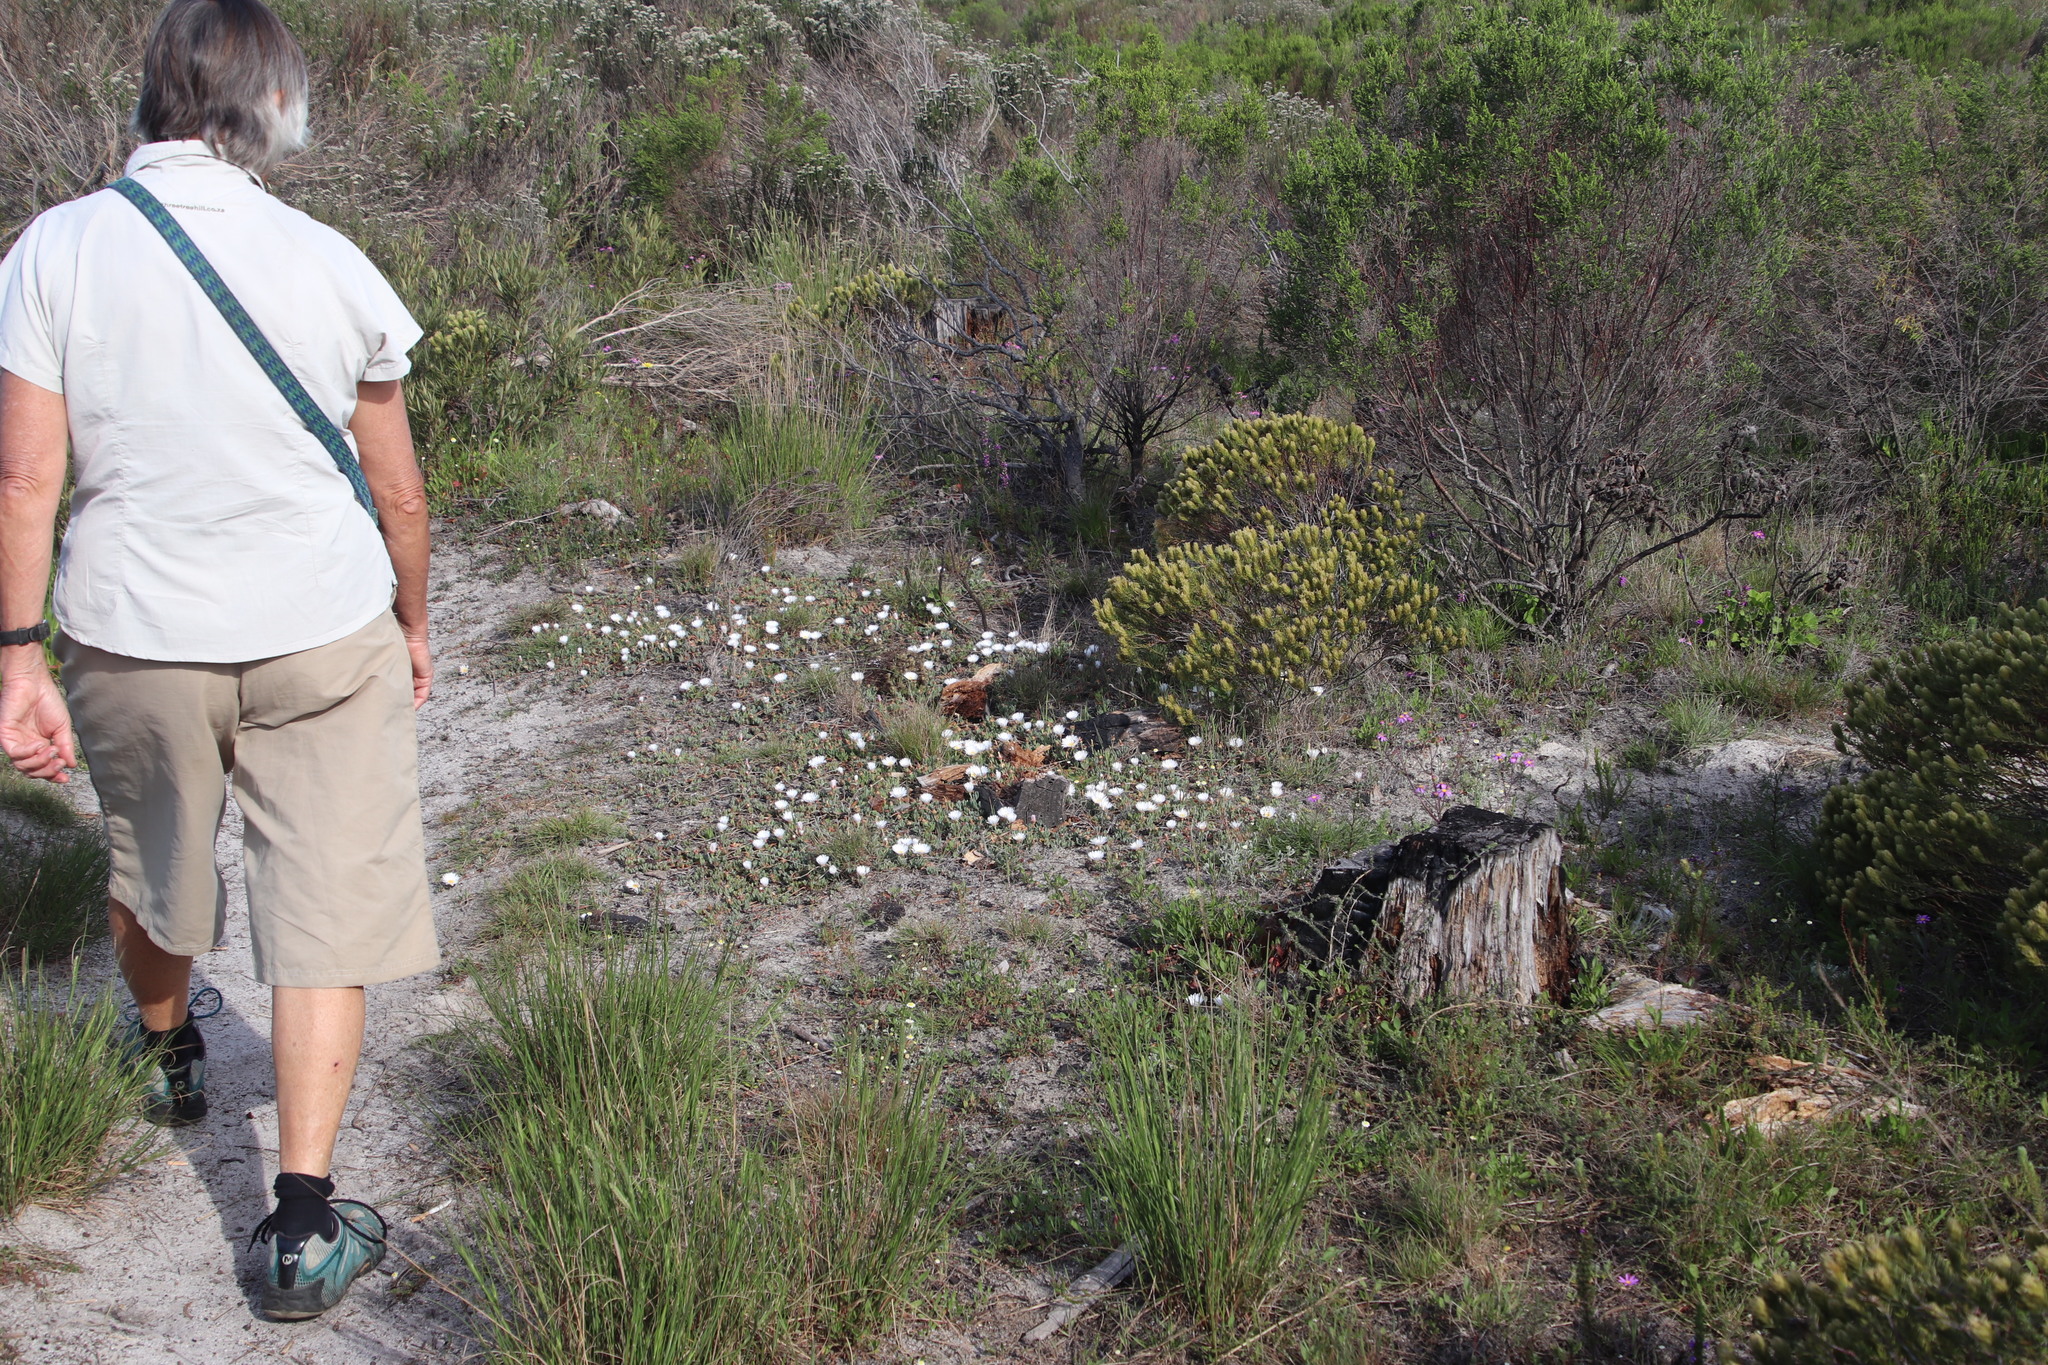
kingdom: Plantae
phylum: Tracheophyta
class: Magnoliopsida
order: Caryophyllales
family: Aizoaceae
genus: Lampranthus
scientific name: Lampranthus reptans
